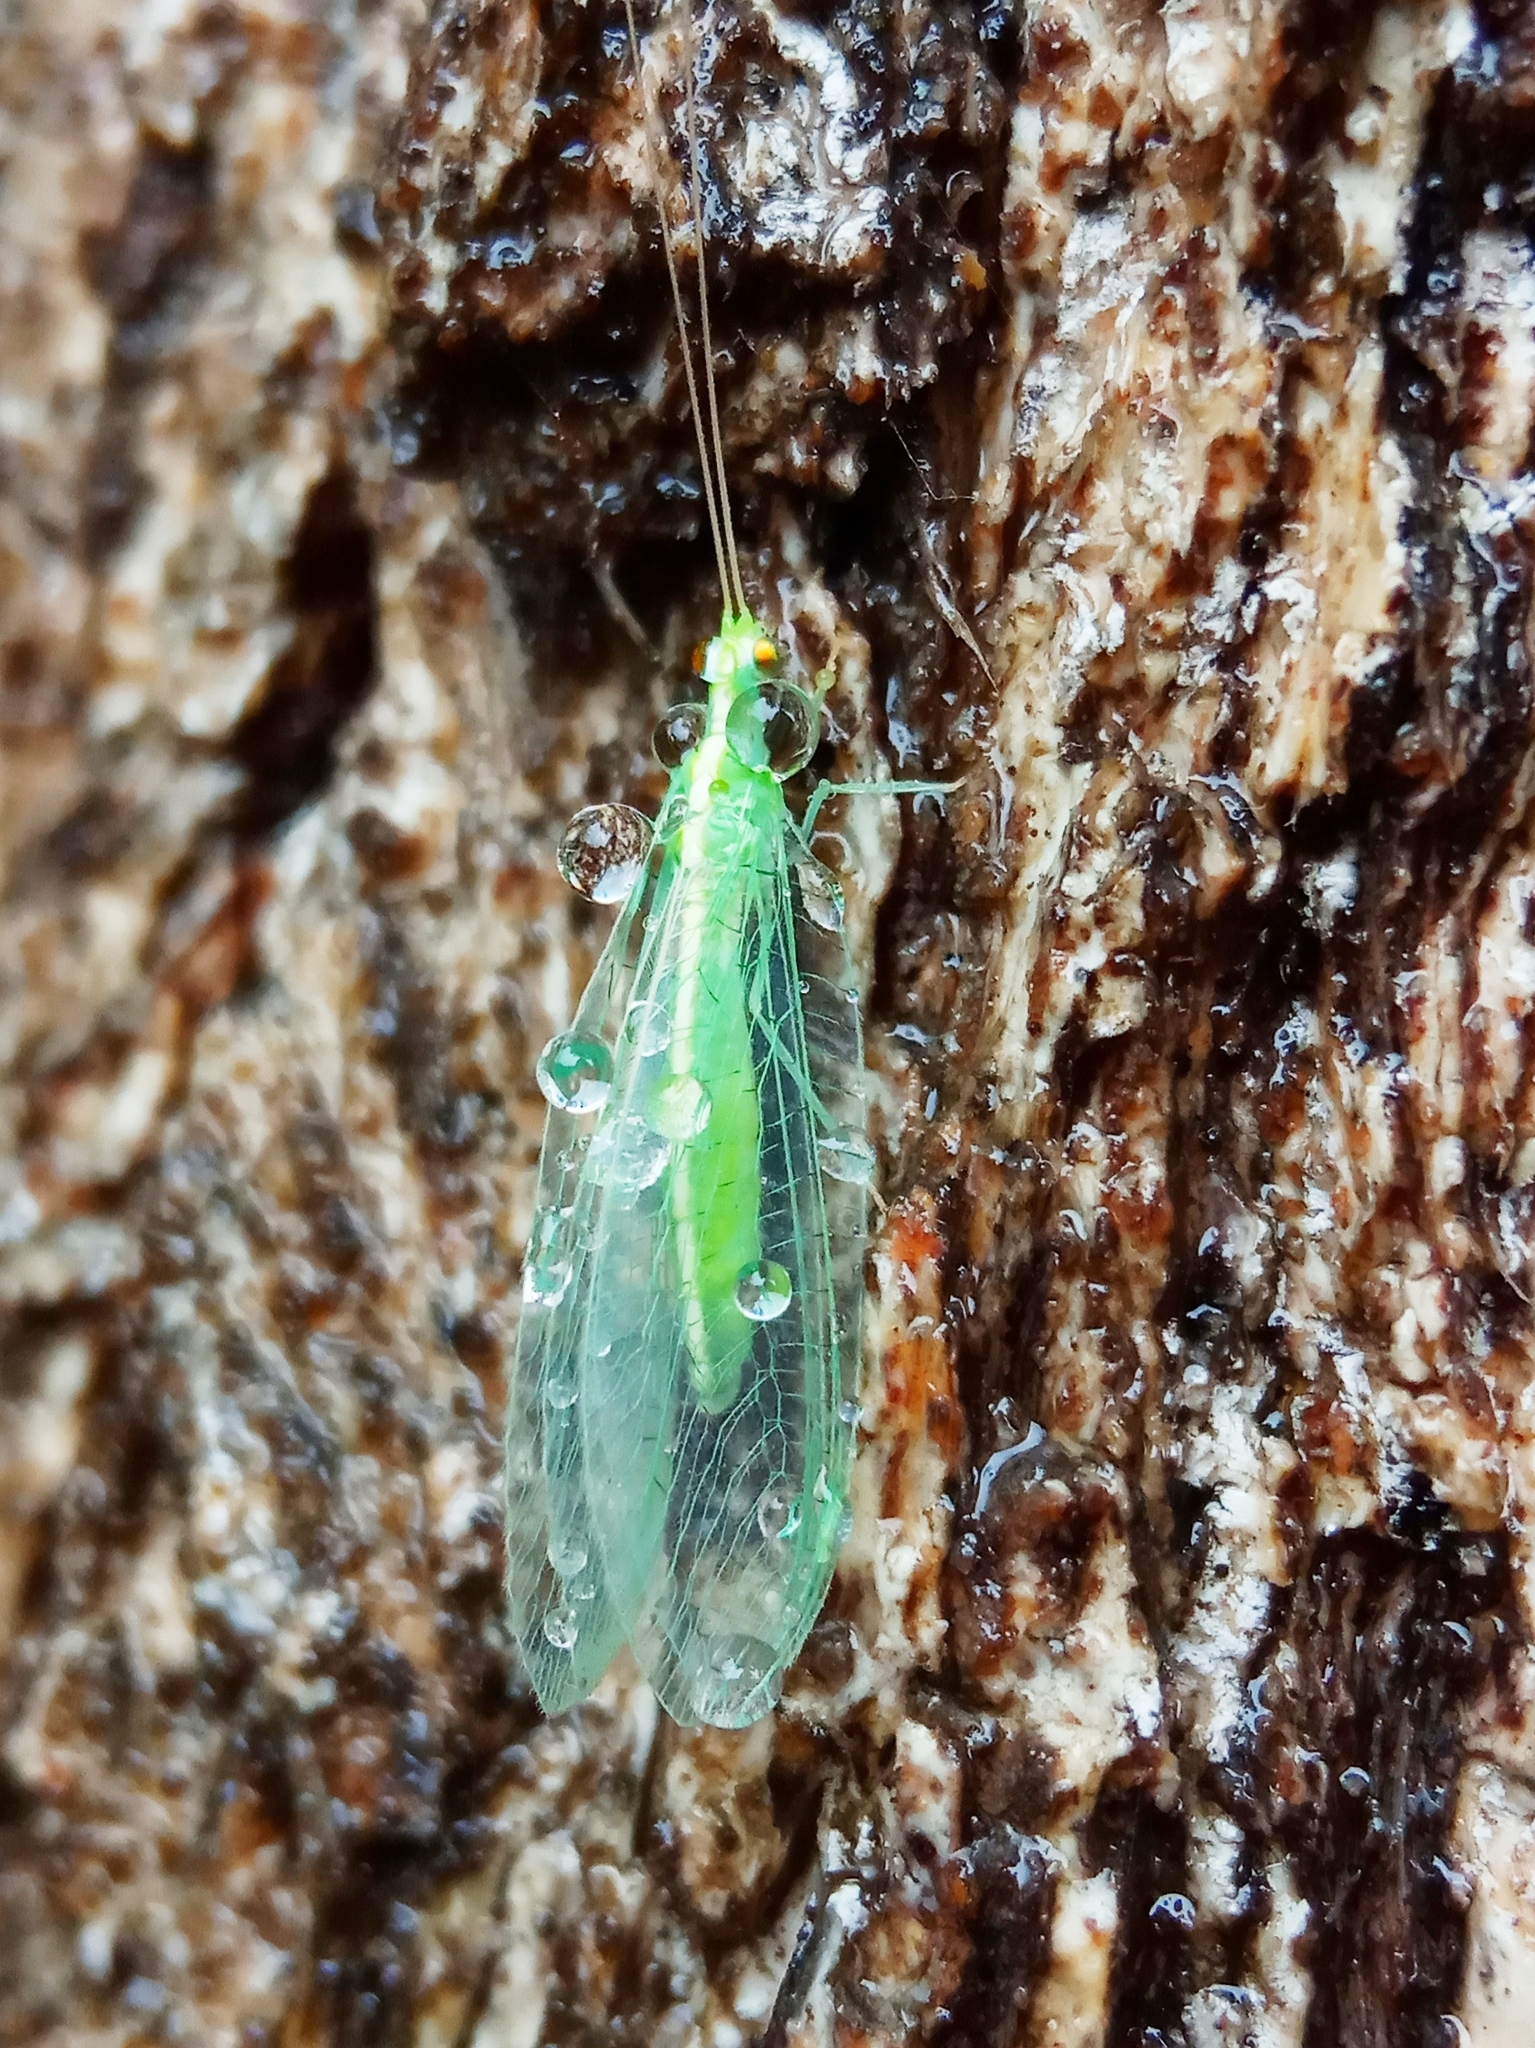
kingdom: Animalia
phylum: Arthropoda
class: Insecta
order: Neuroptera
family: Chrysopidae
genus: Chrysoperla
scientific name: Chrysoperla
